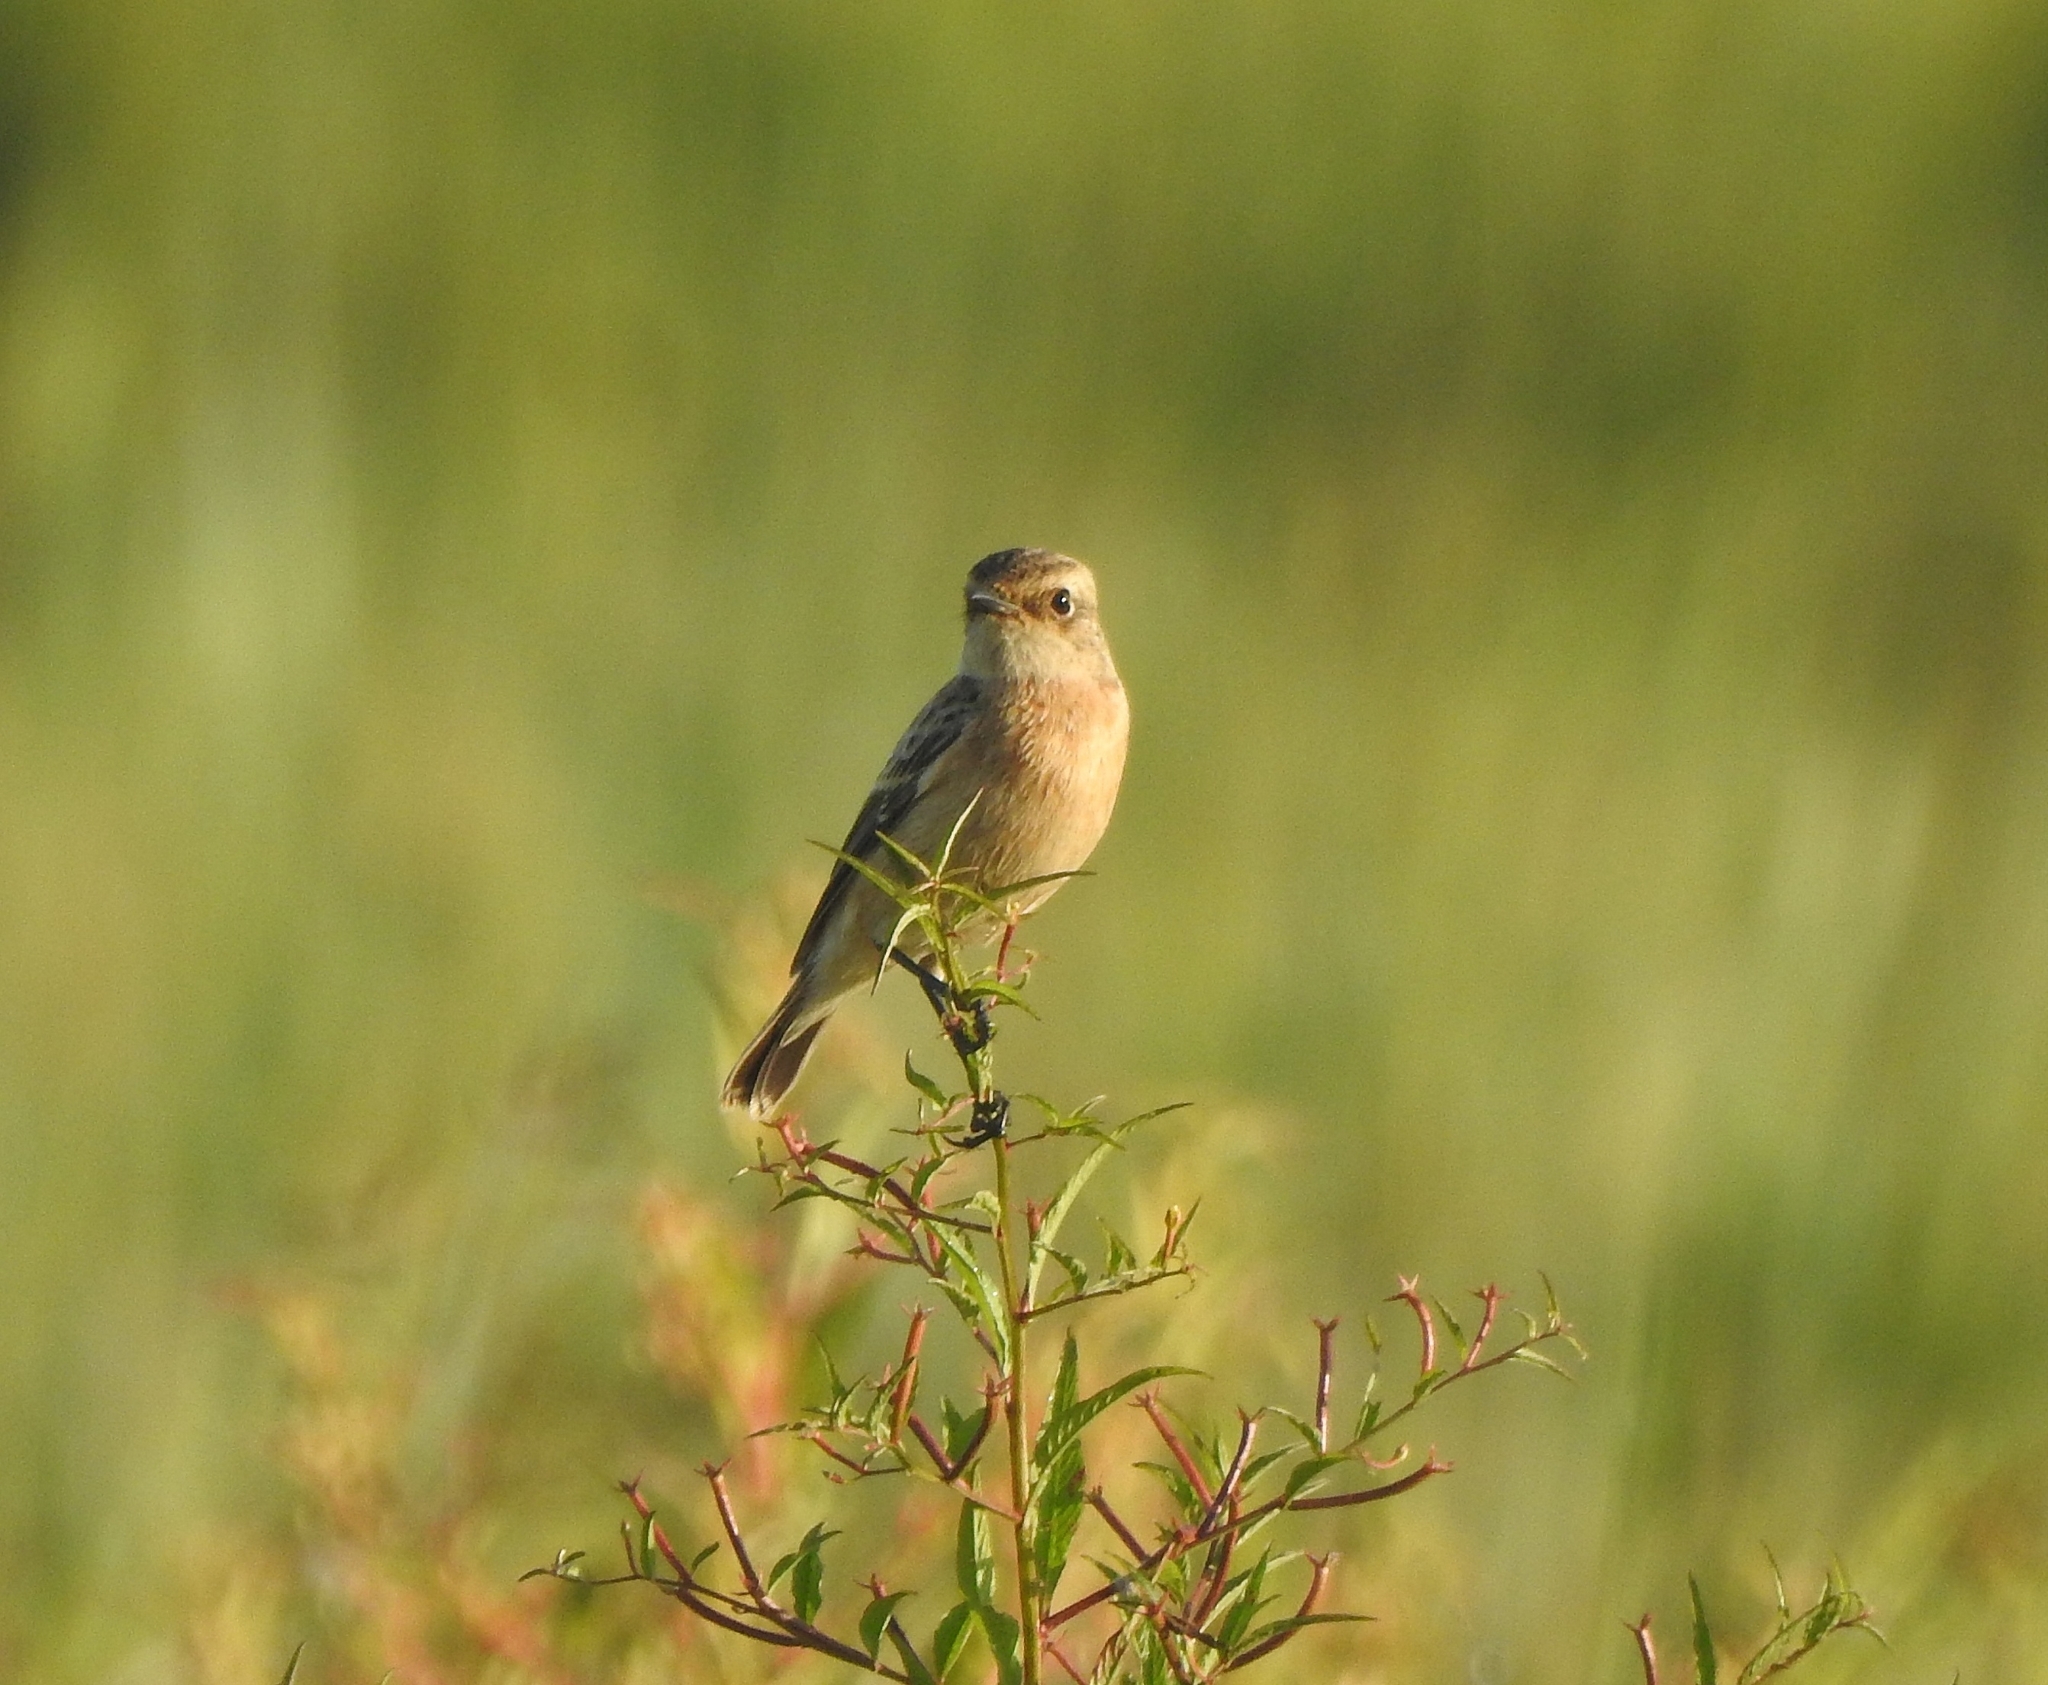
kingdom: Animalia
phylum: Chordata
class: Aves
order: Passeriformes
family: Muscicapidae
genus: Saxicola
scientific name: Saxicola maurus
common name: Siberian stonechat
